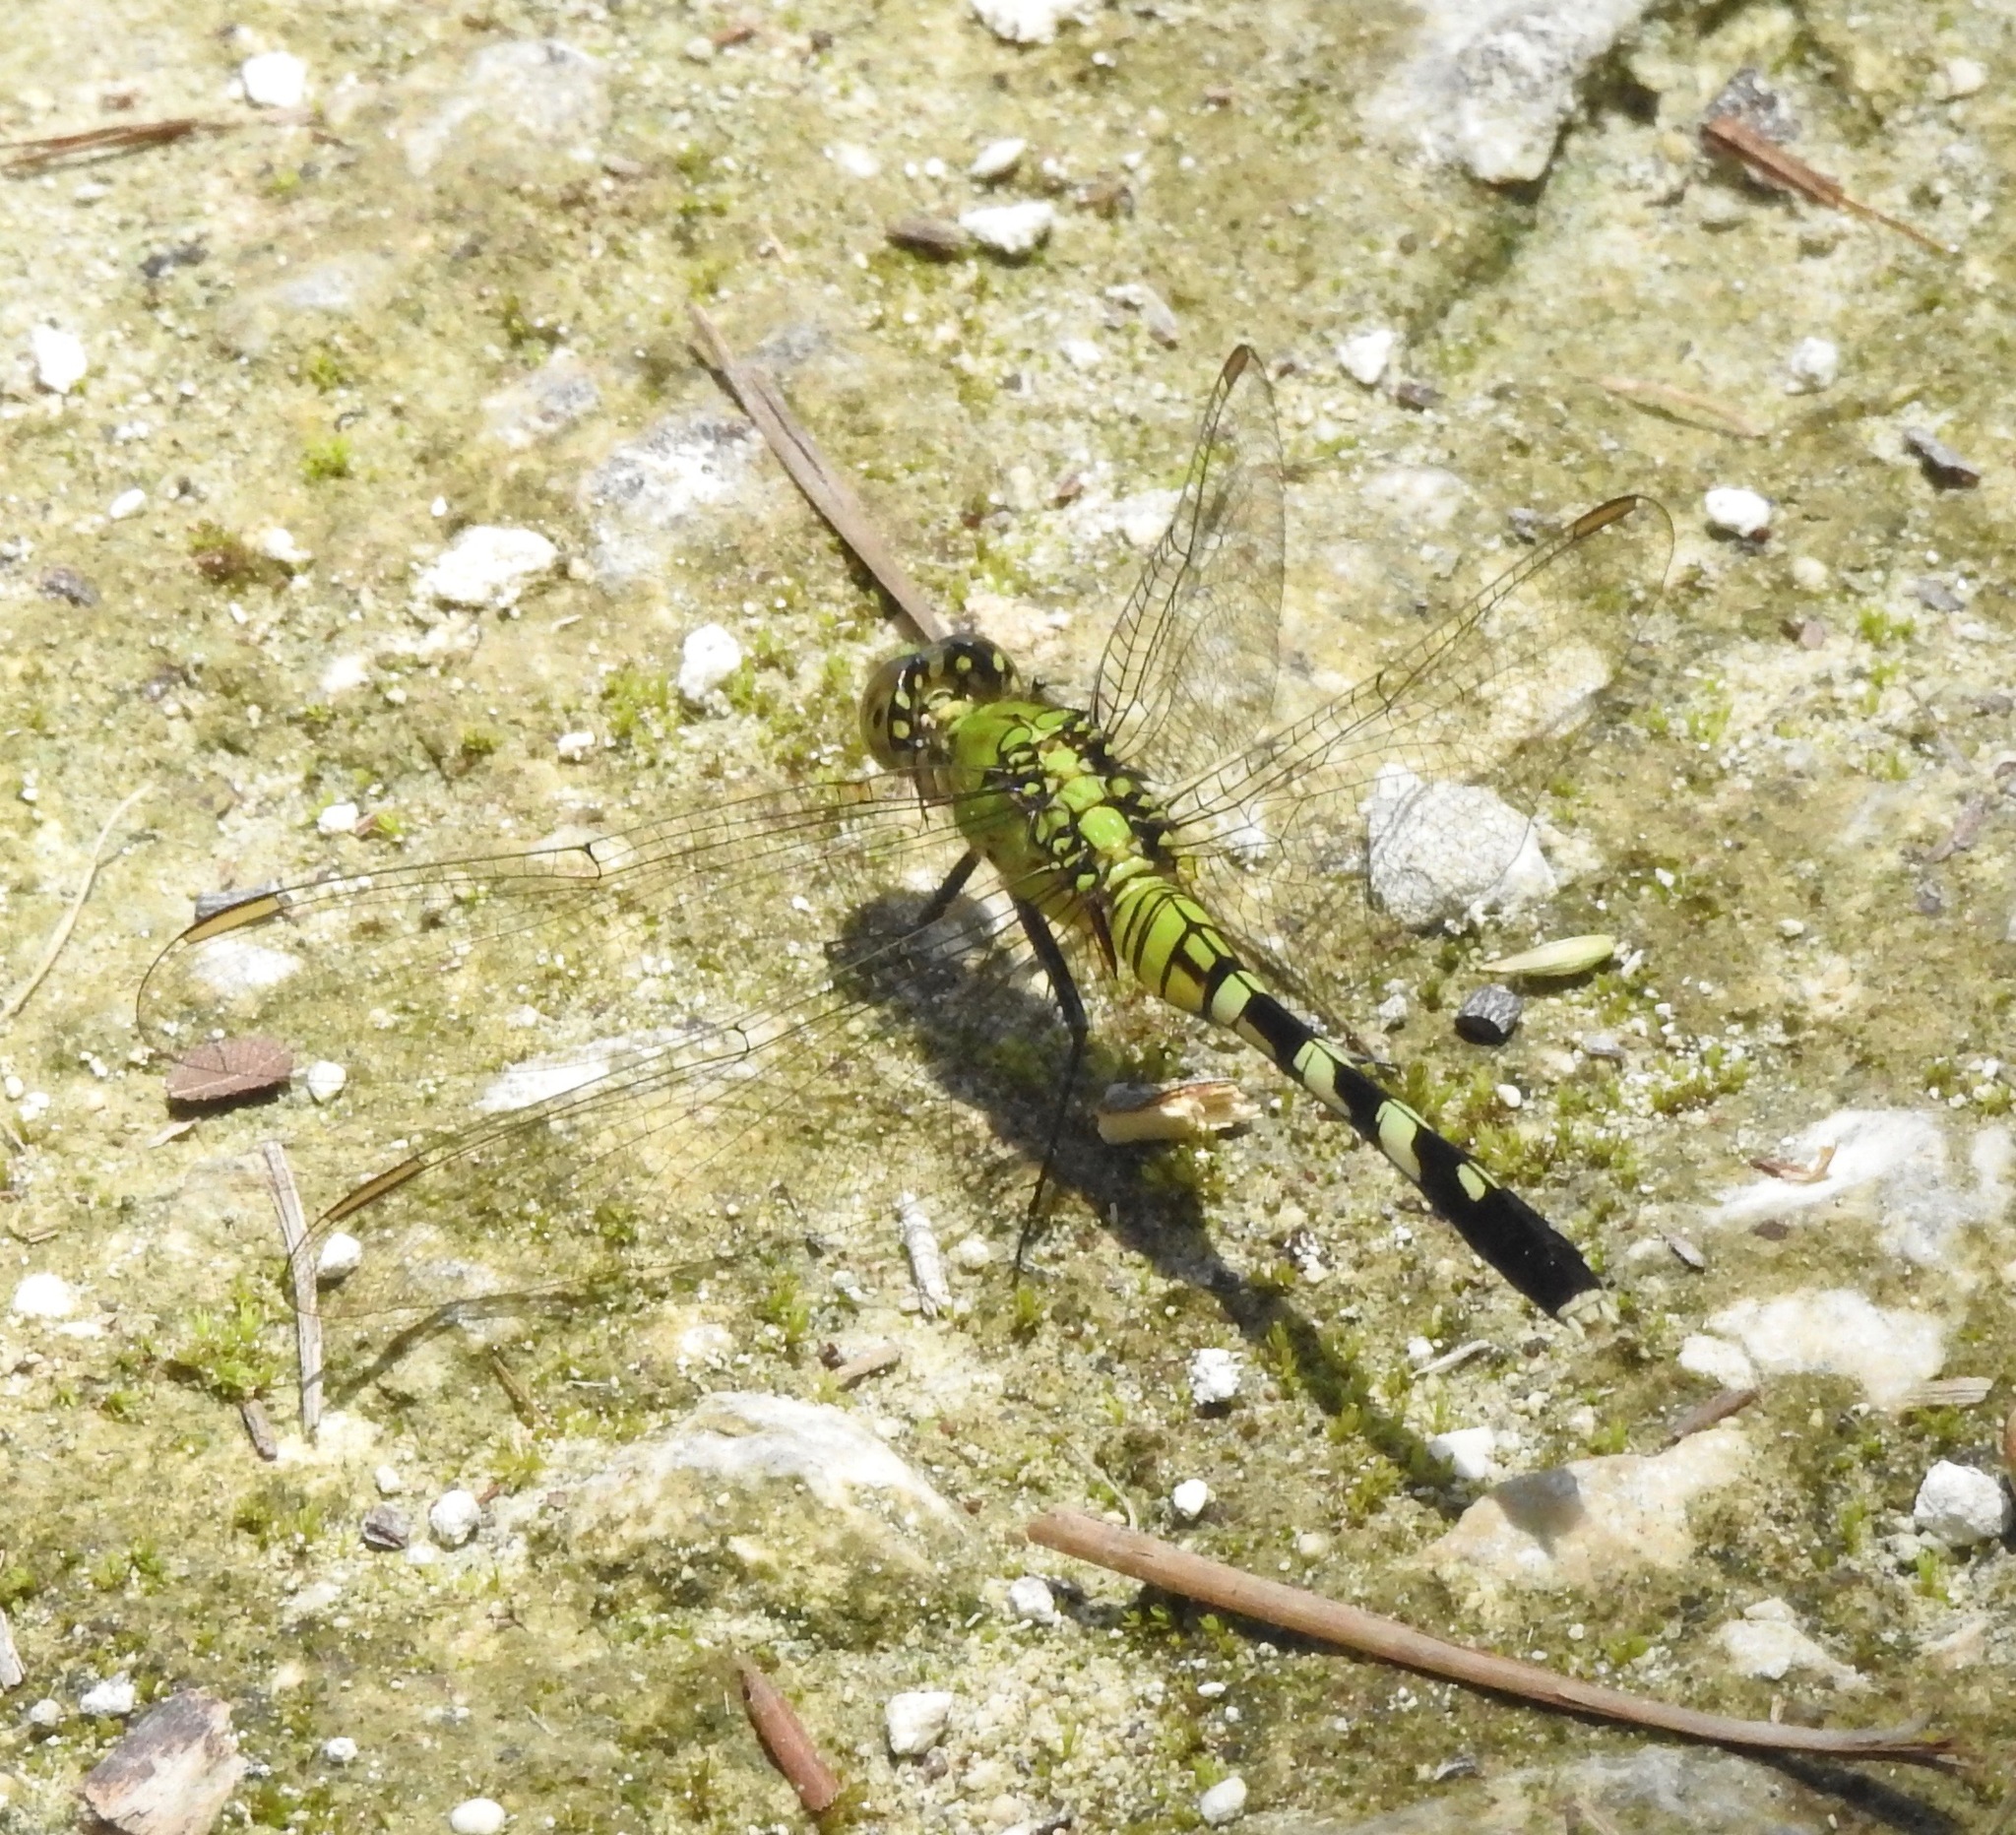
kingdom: Animalia
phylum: Arthropoda
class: Insecta
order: Odonata
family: Libellulidae
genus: Erythemis
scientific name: Erythemis simplicicollis
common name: Eastern pondhawk
